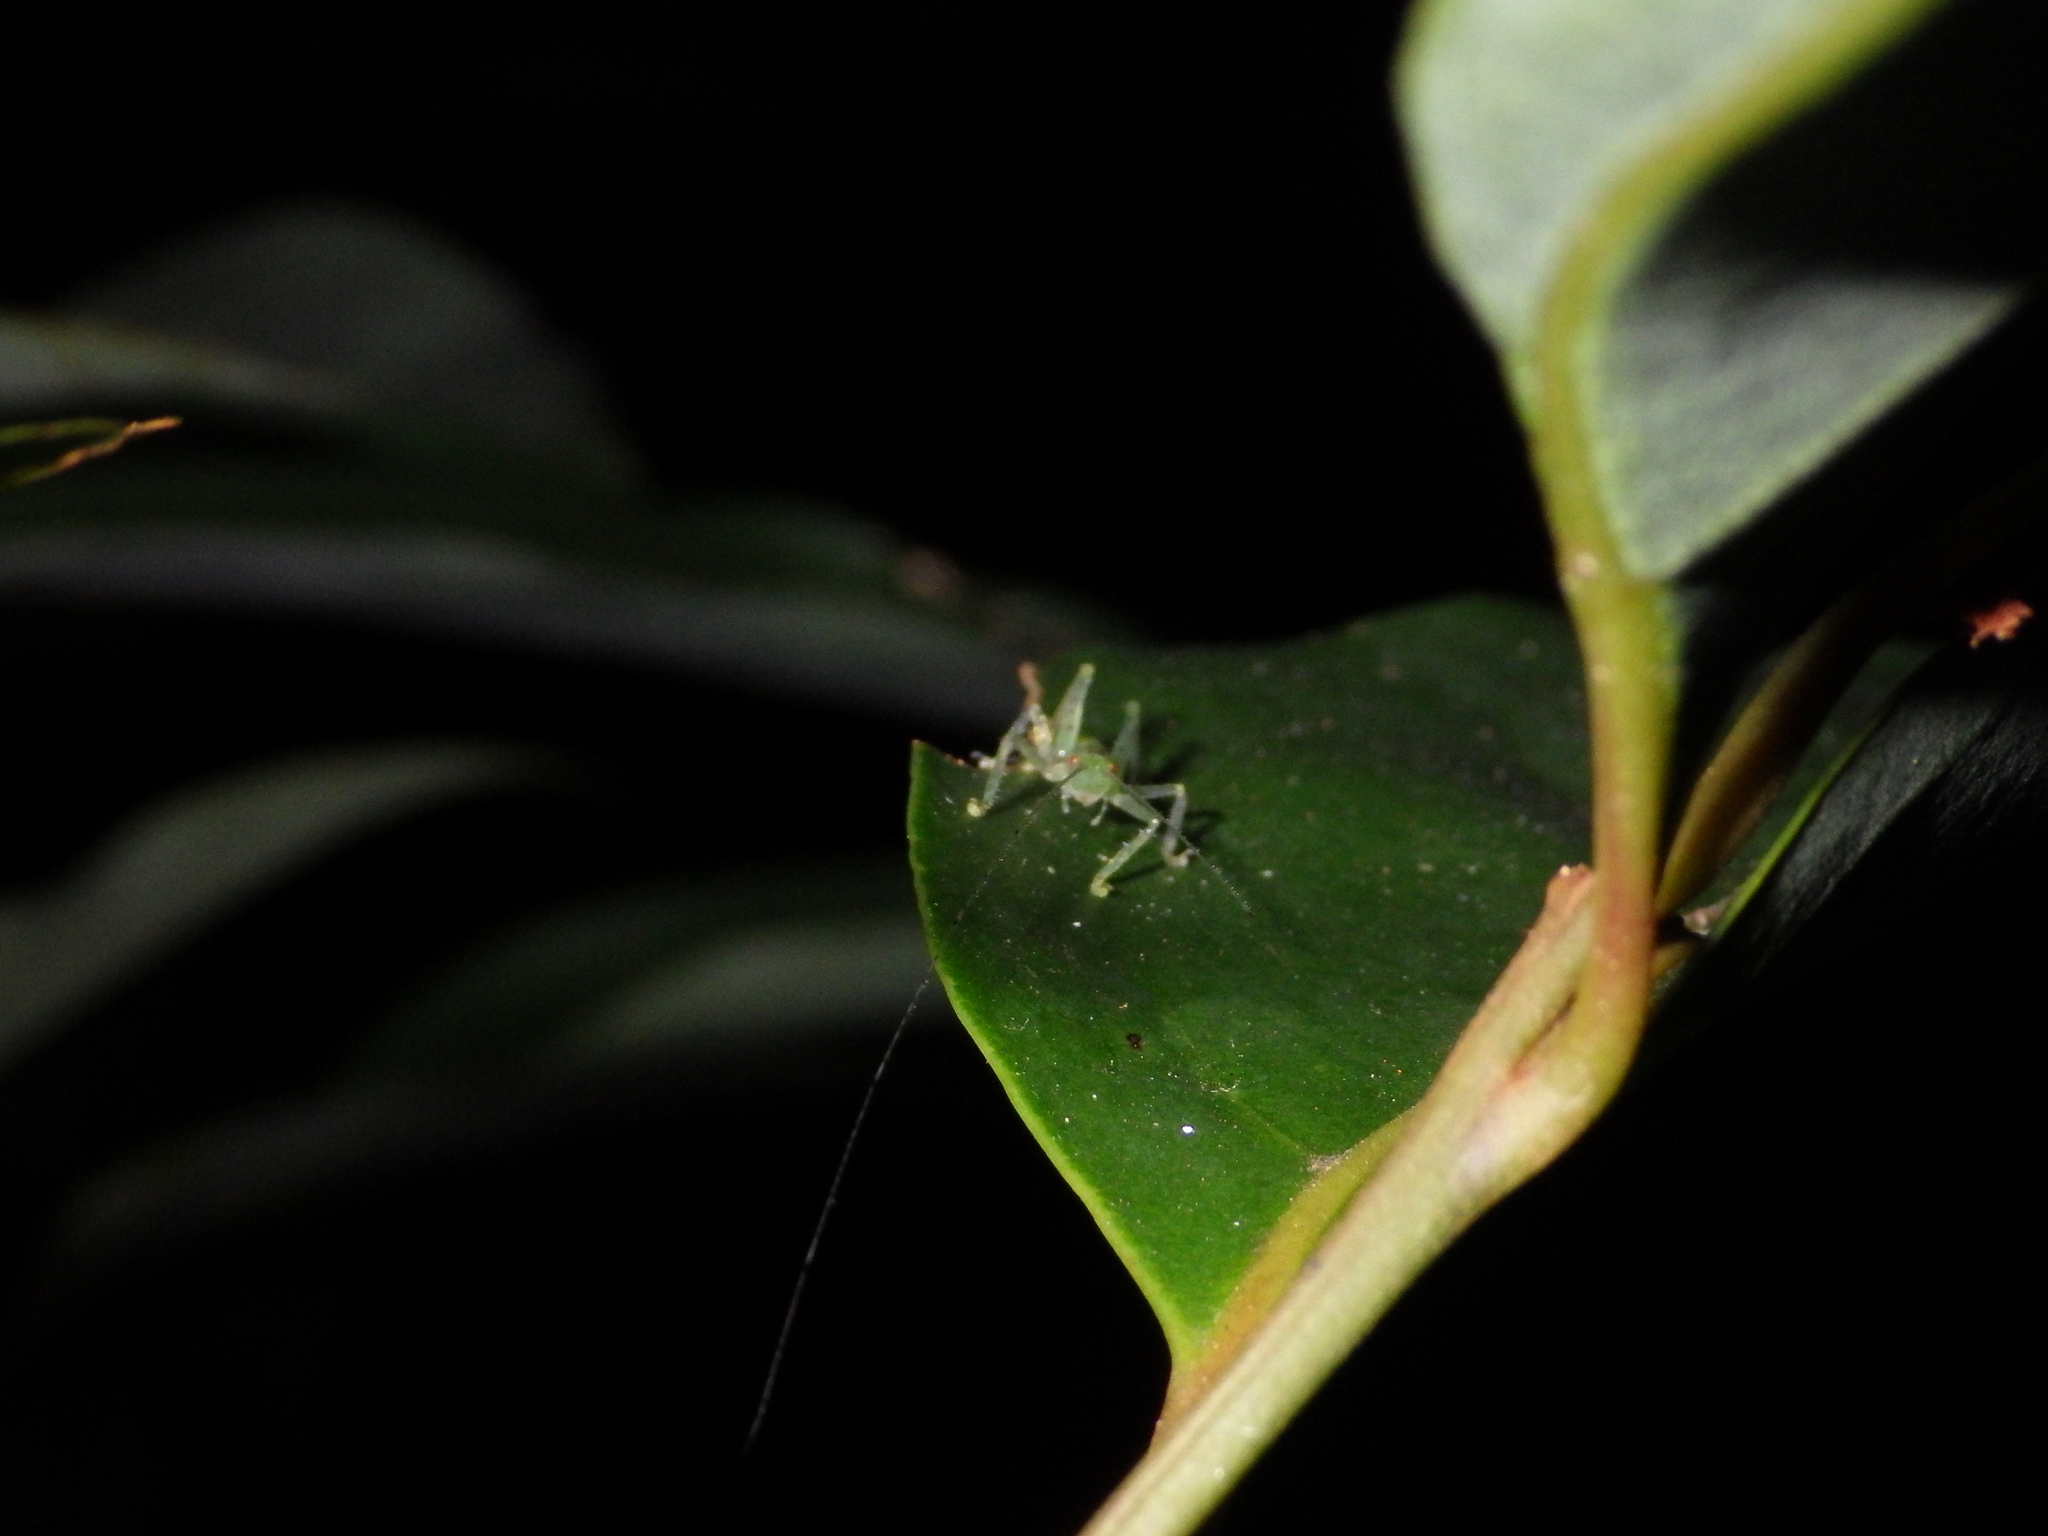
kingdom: Animalia
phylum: Arthropoda
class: Insecta
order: Orthoptera
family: Tettigoniidae
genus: Emeraldagraecia
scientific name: Emeraldagraecia munggarifrons
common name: Pink-faced emerald
